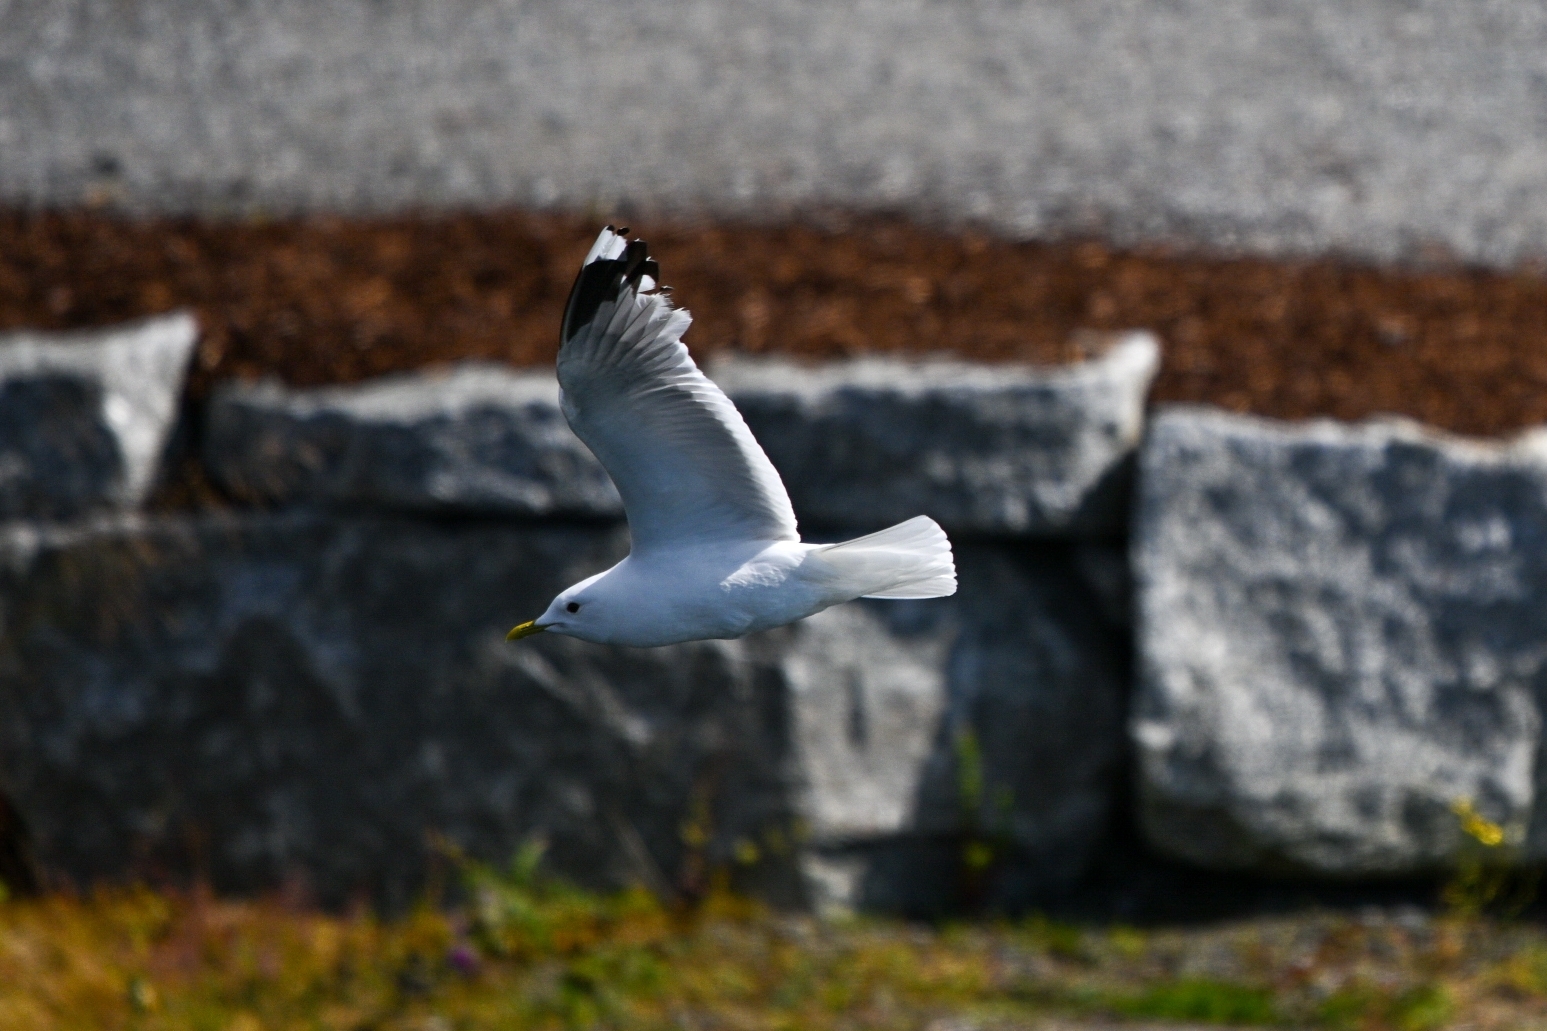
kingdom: Animalia
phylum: Chordata
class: Aves
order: Charadriiformes
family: Laridae
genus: Larus
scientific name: Larus canus
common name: Mew gull
